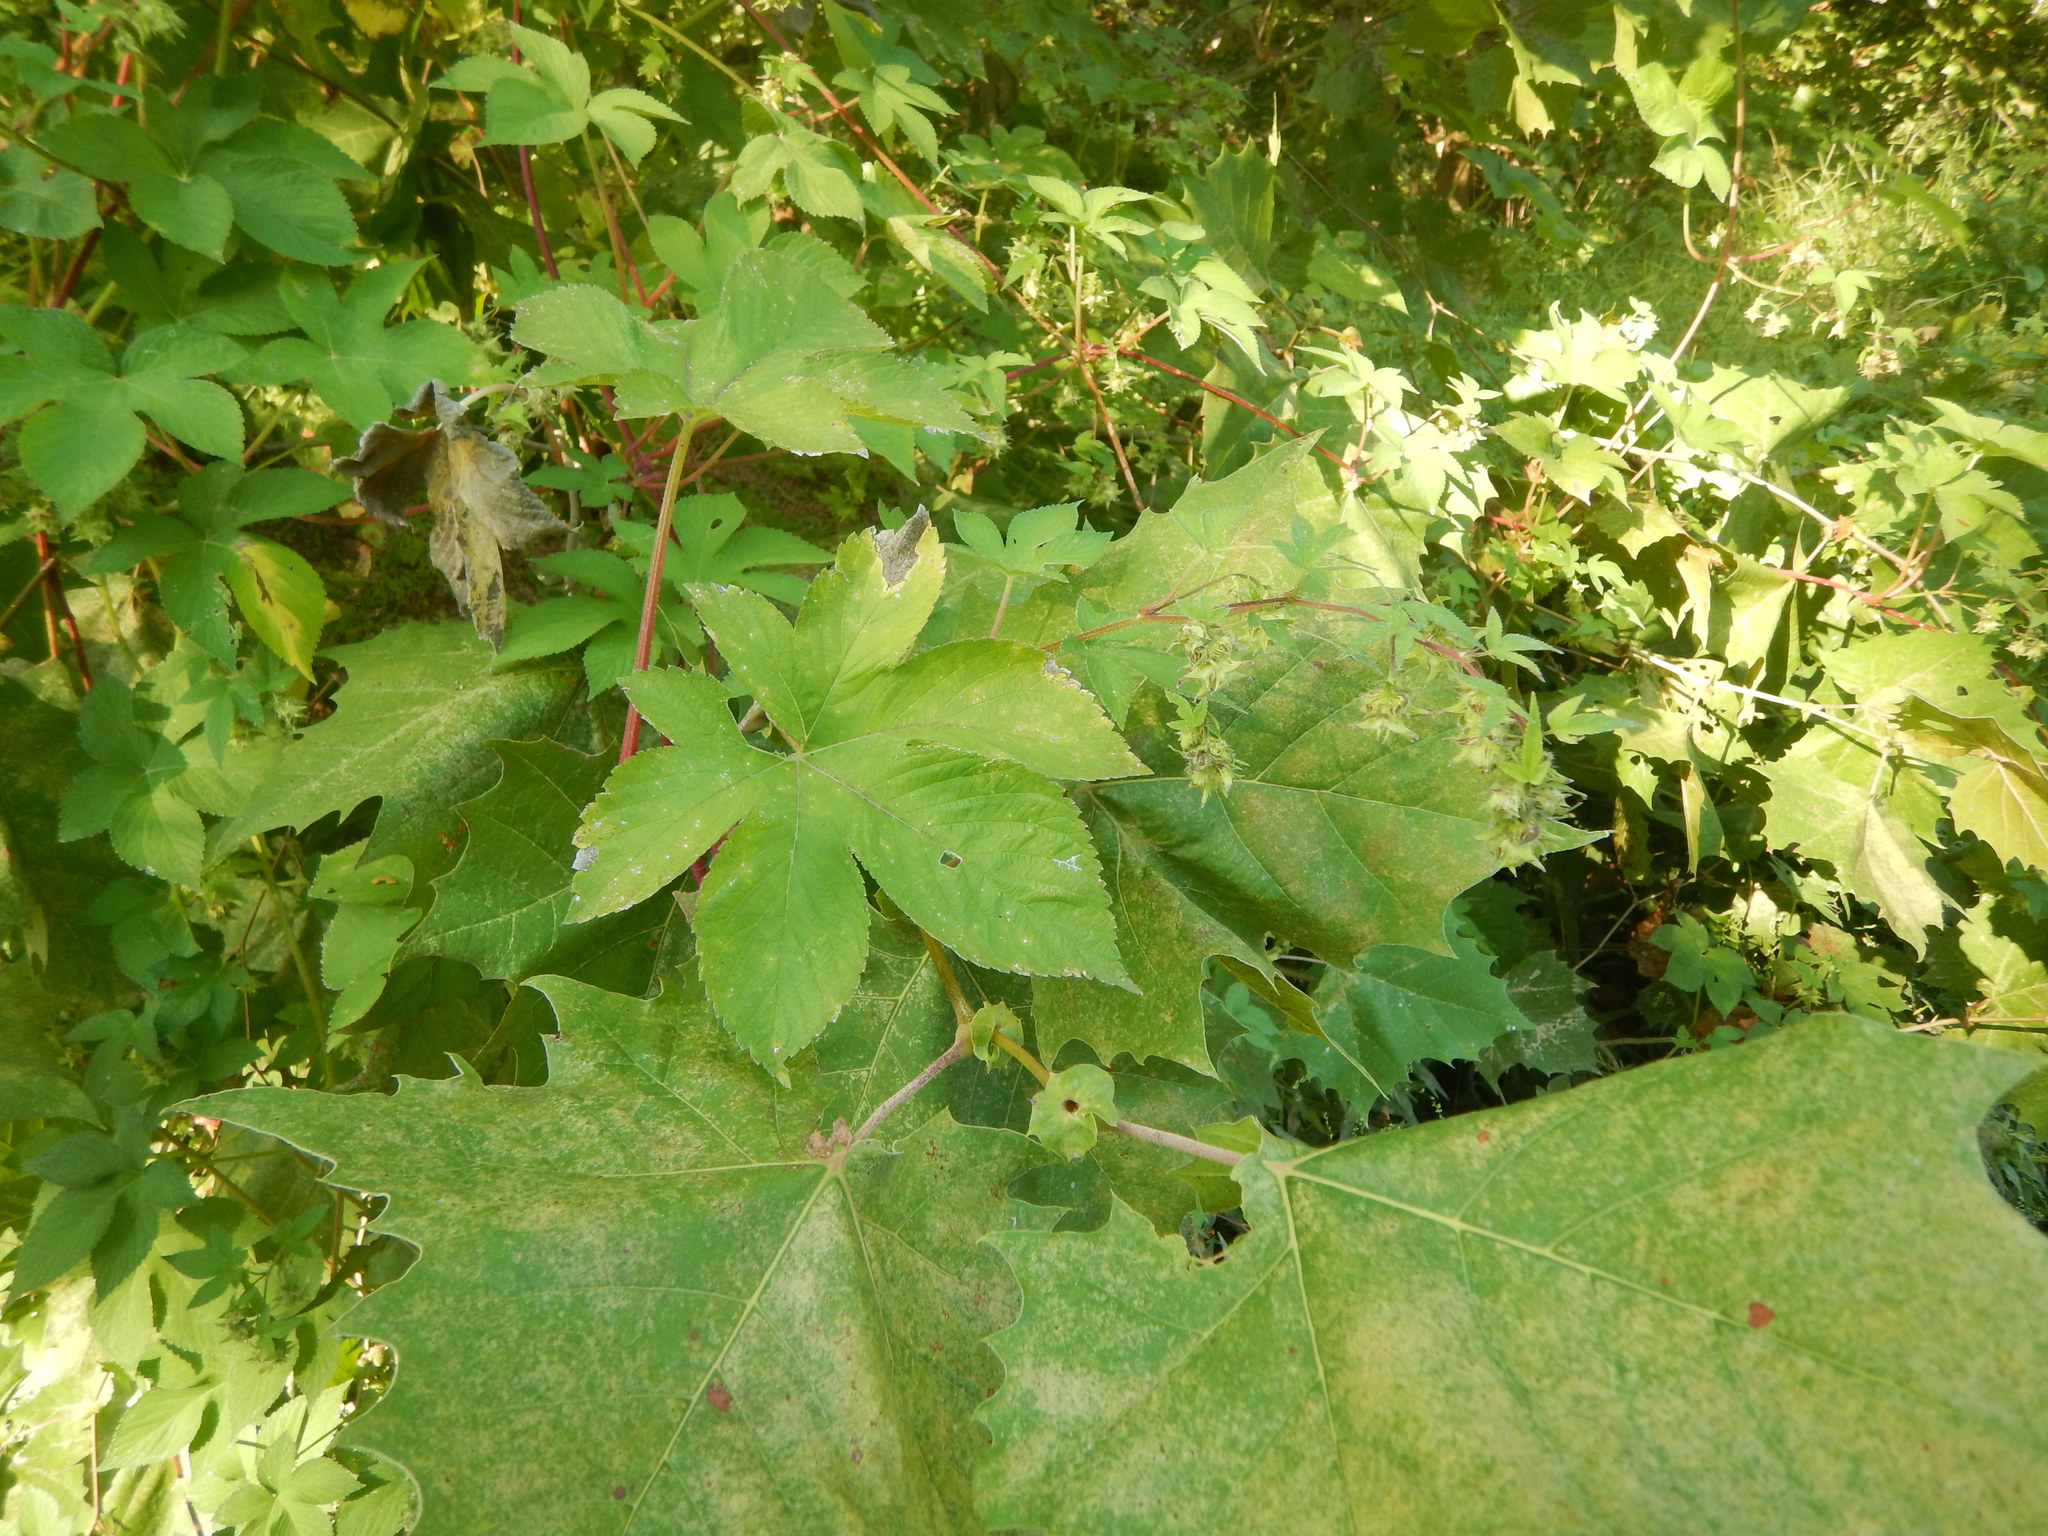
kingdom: Plantae
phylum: Tracheophyta
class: Magnoliopsida
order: Rosales
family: Cannabaceae
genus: Humulus
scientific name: Humulus scandens
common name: Japanese hop
